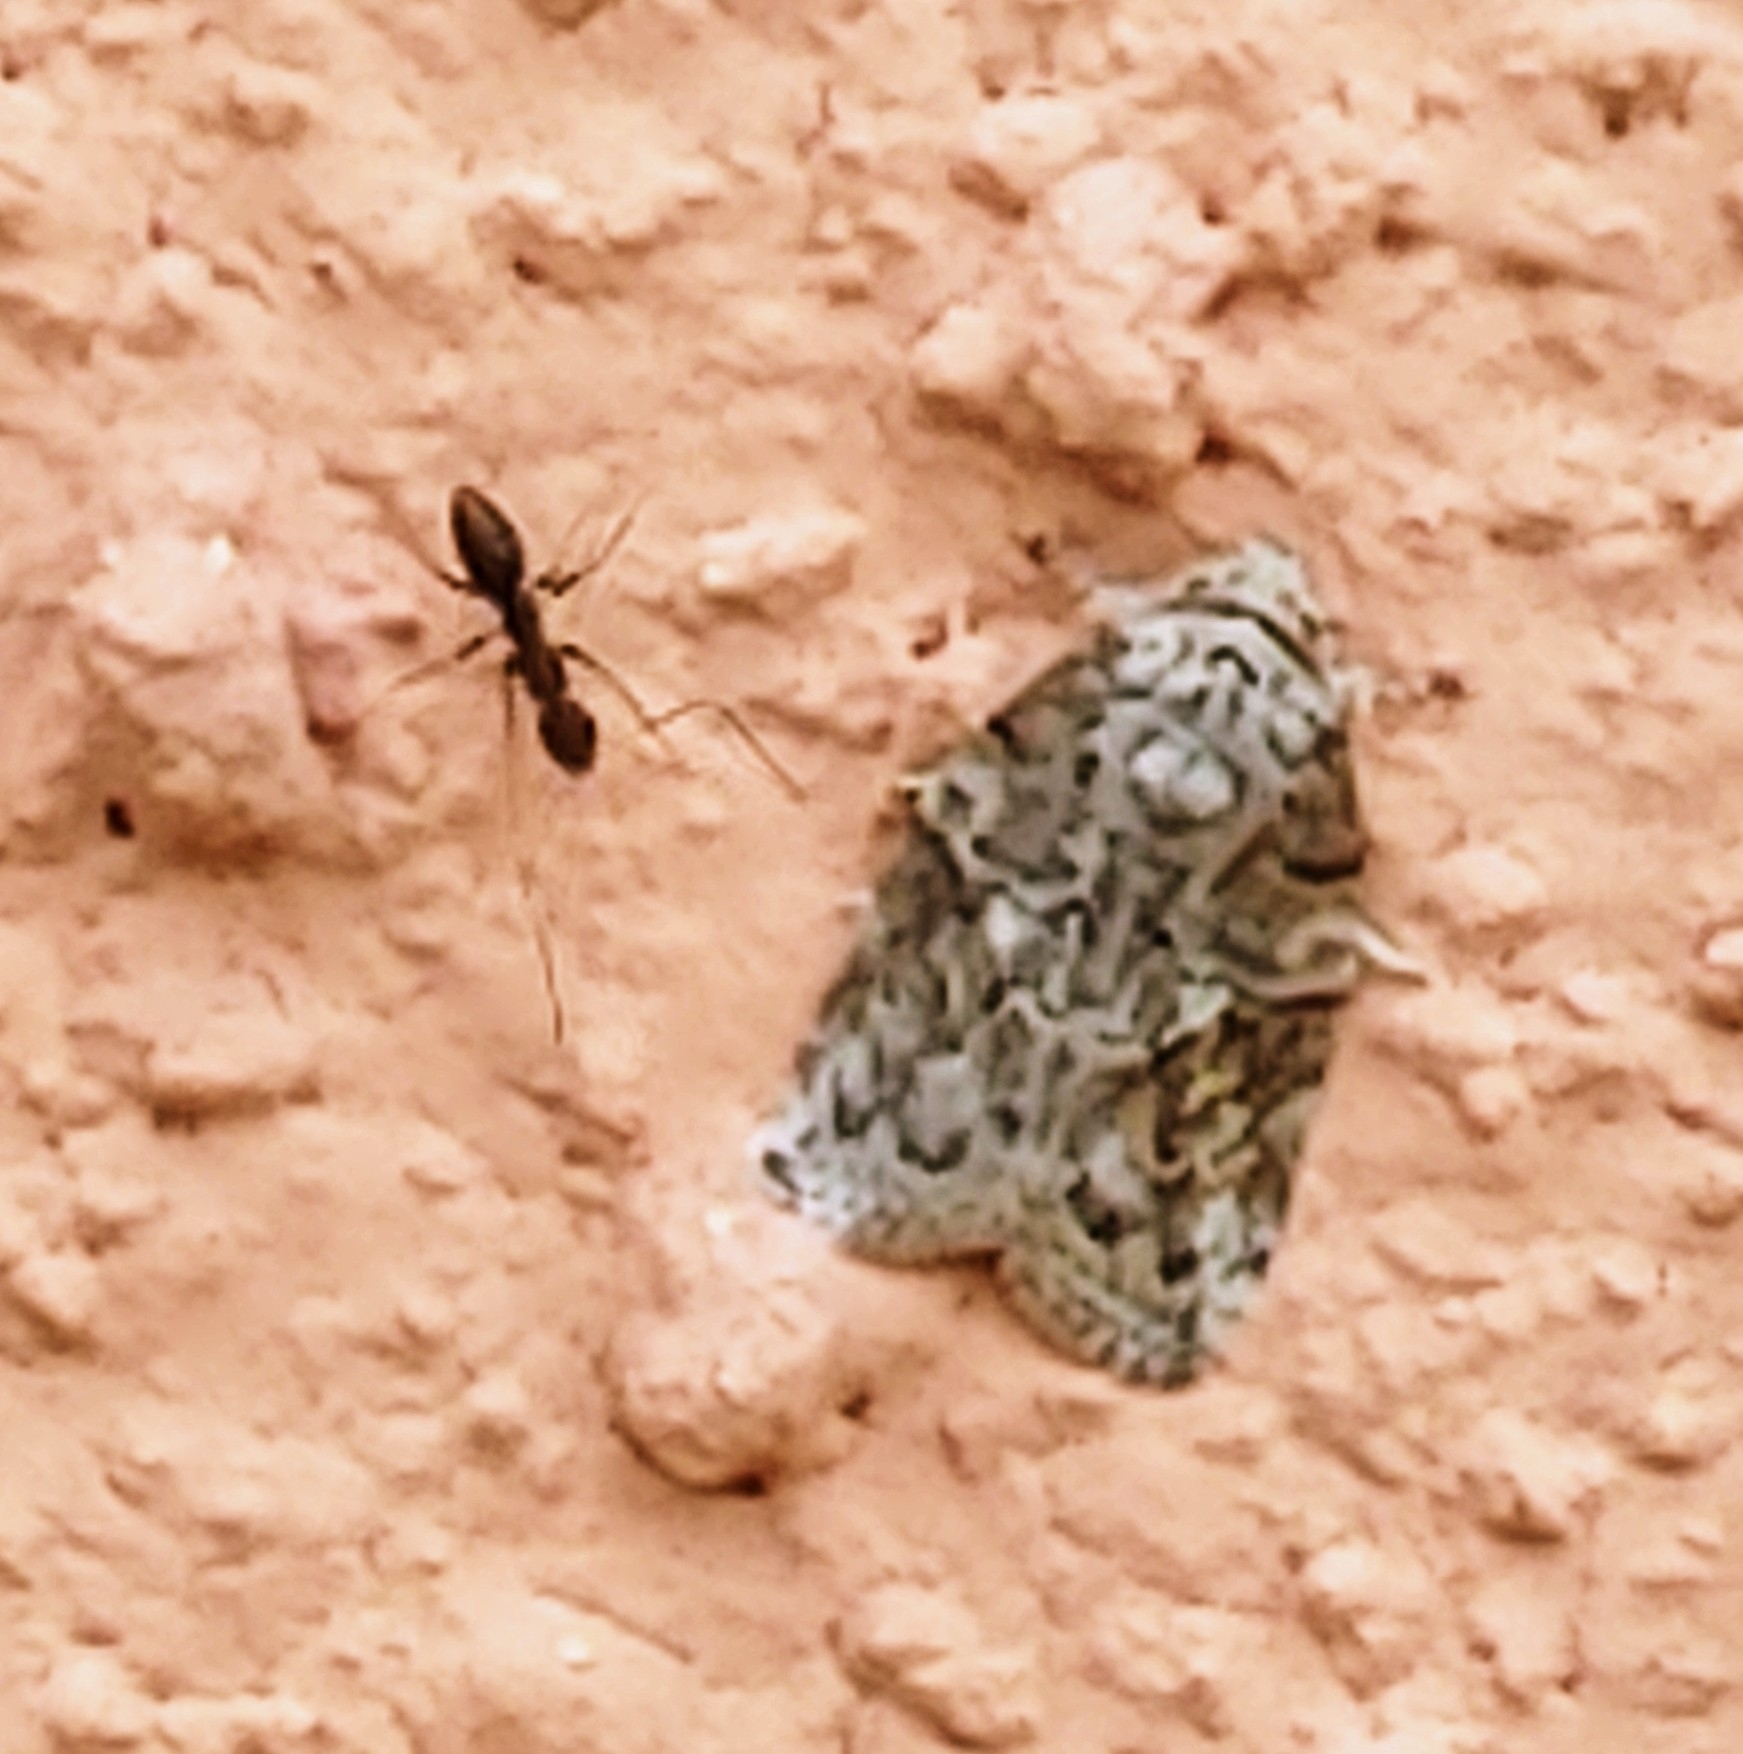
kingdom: Animalia
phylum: Arthropoda
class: Insecta
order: Lepidoptera
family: Nolidae
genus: Garella
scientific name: Garella nilotica
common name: Black-olive caterpillar moth
